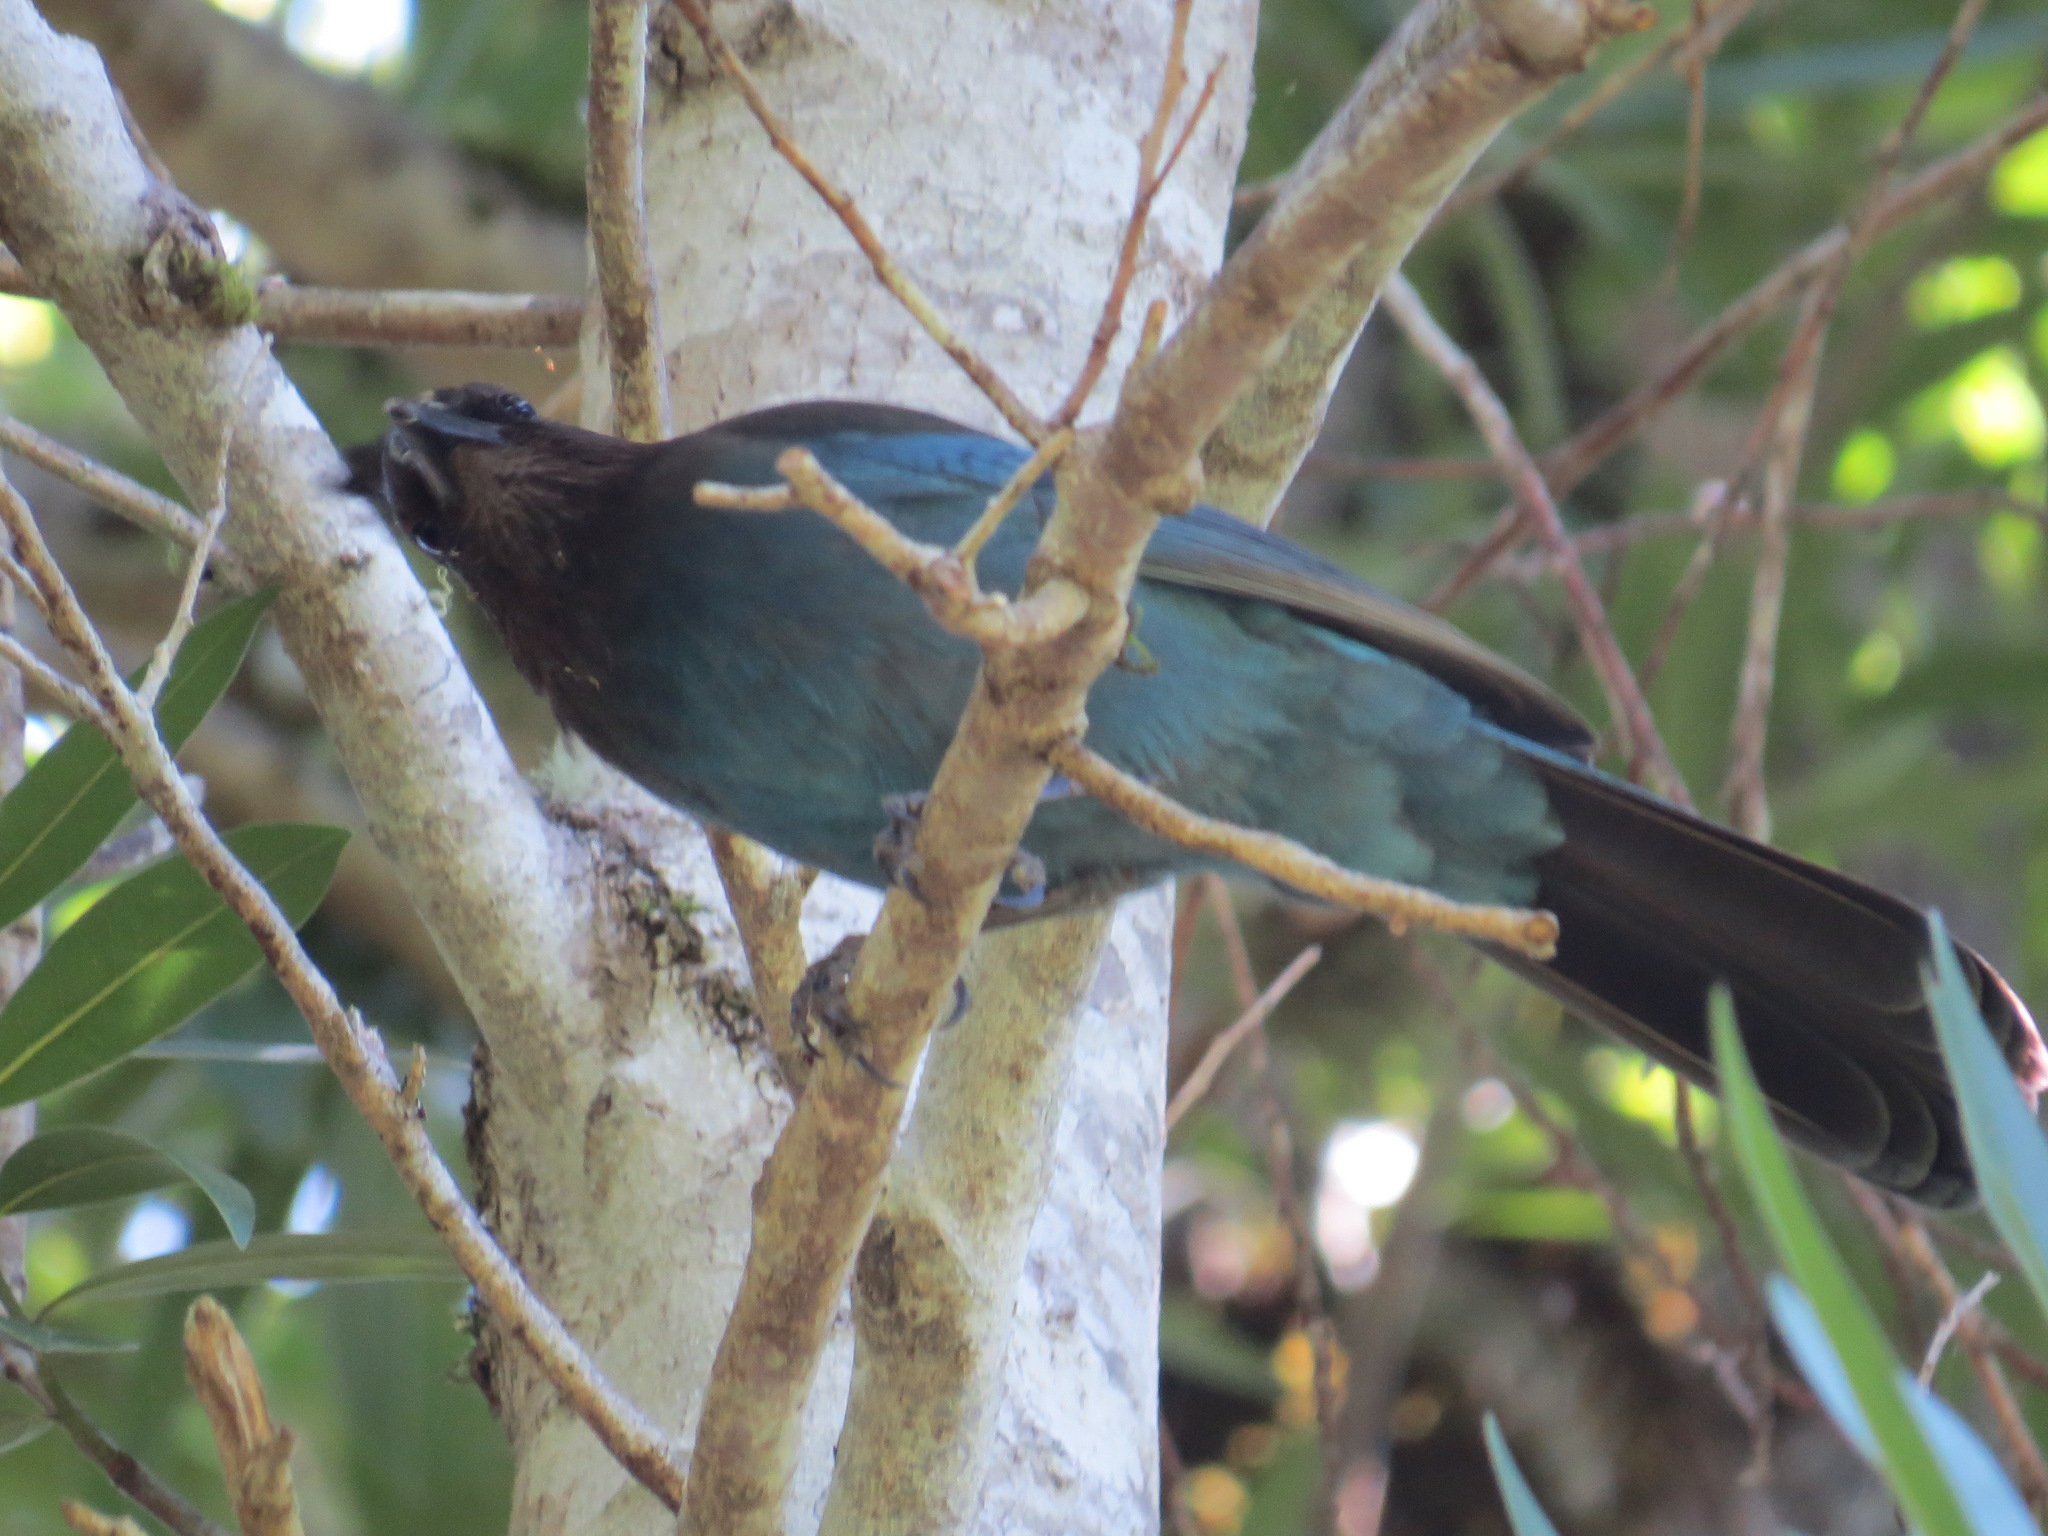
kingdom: Animalia
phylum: Chordata
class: Aves
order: Passeriformes
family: Corvidae
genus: Cyanocitta
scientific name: Cyanocitta stelleri
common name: Steller's jay
